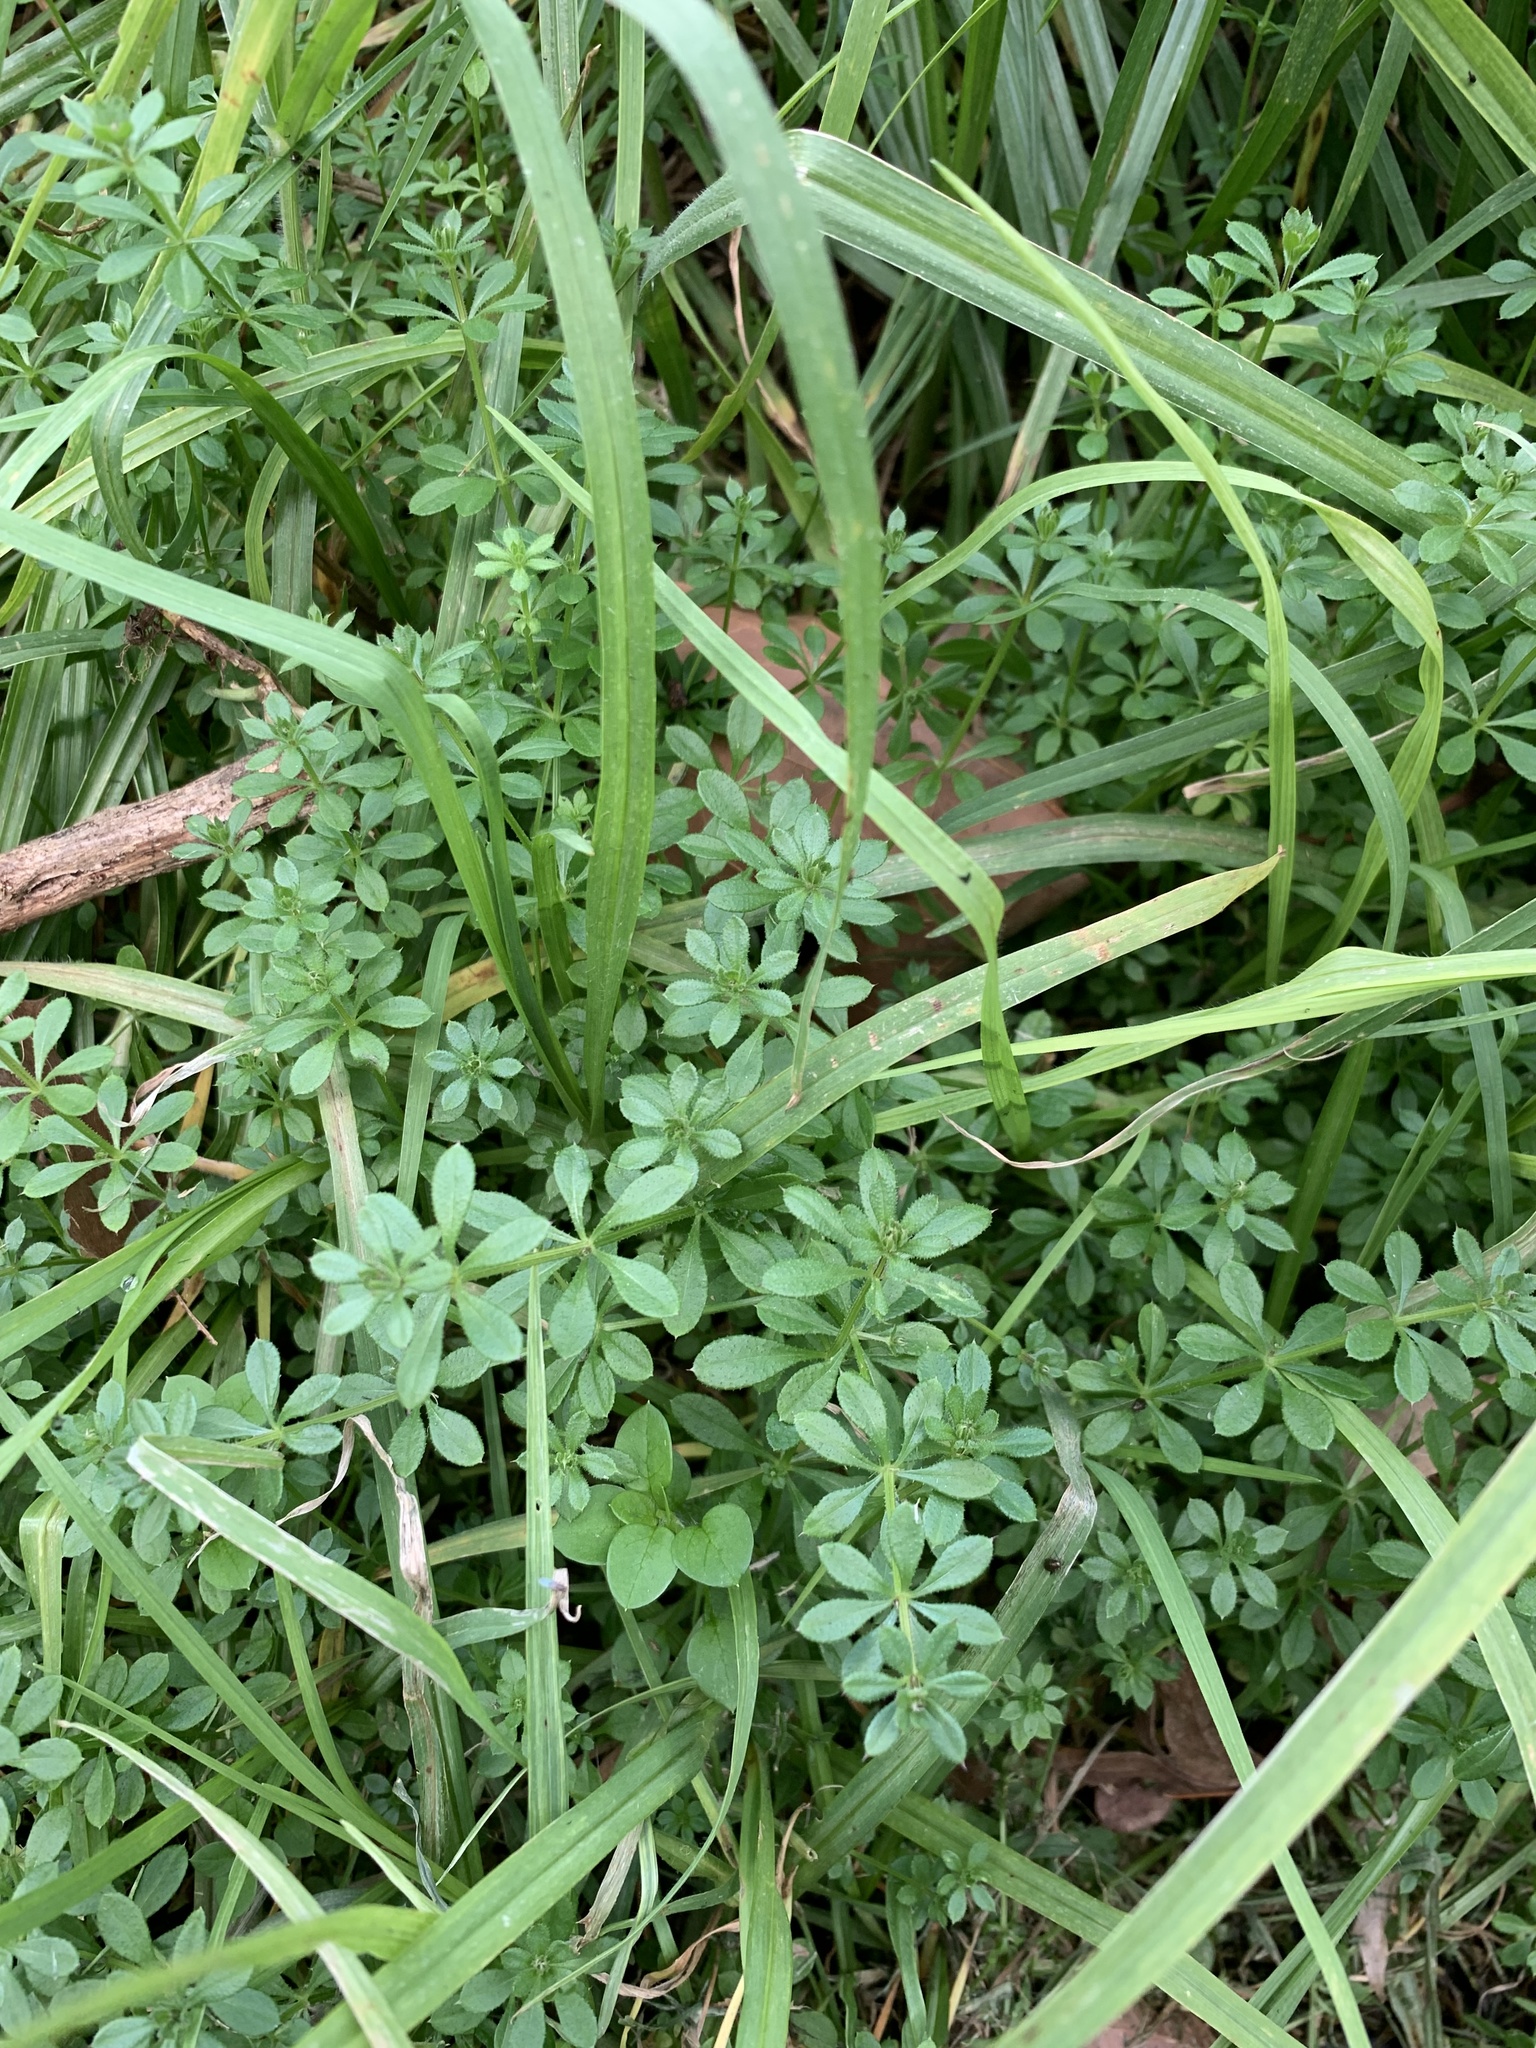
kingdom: Plantae
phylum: Tracheophyta
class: Magnoliopsida
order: Gentianales
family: Rubiaceae
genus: Galium
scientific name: Galium aparine
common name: Cleavers
